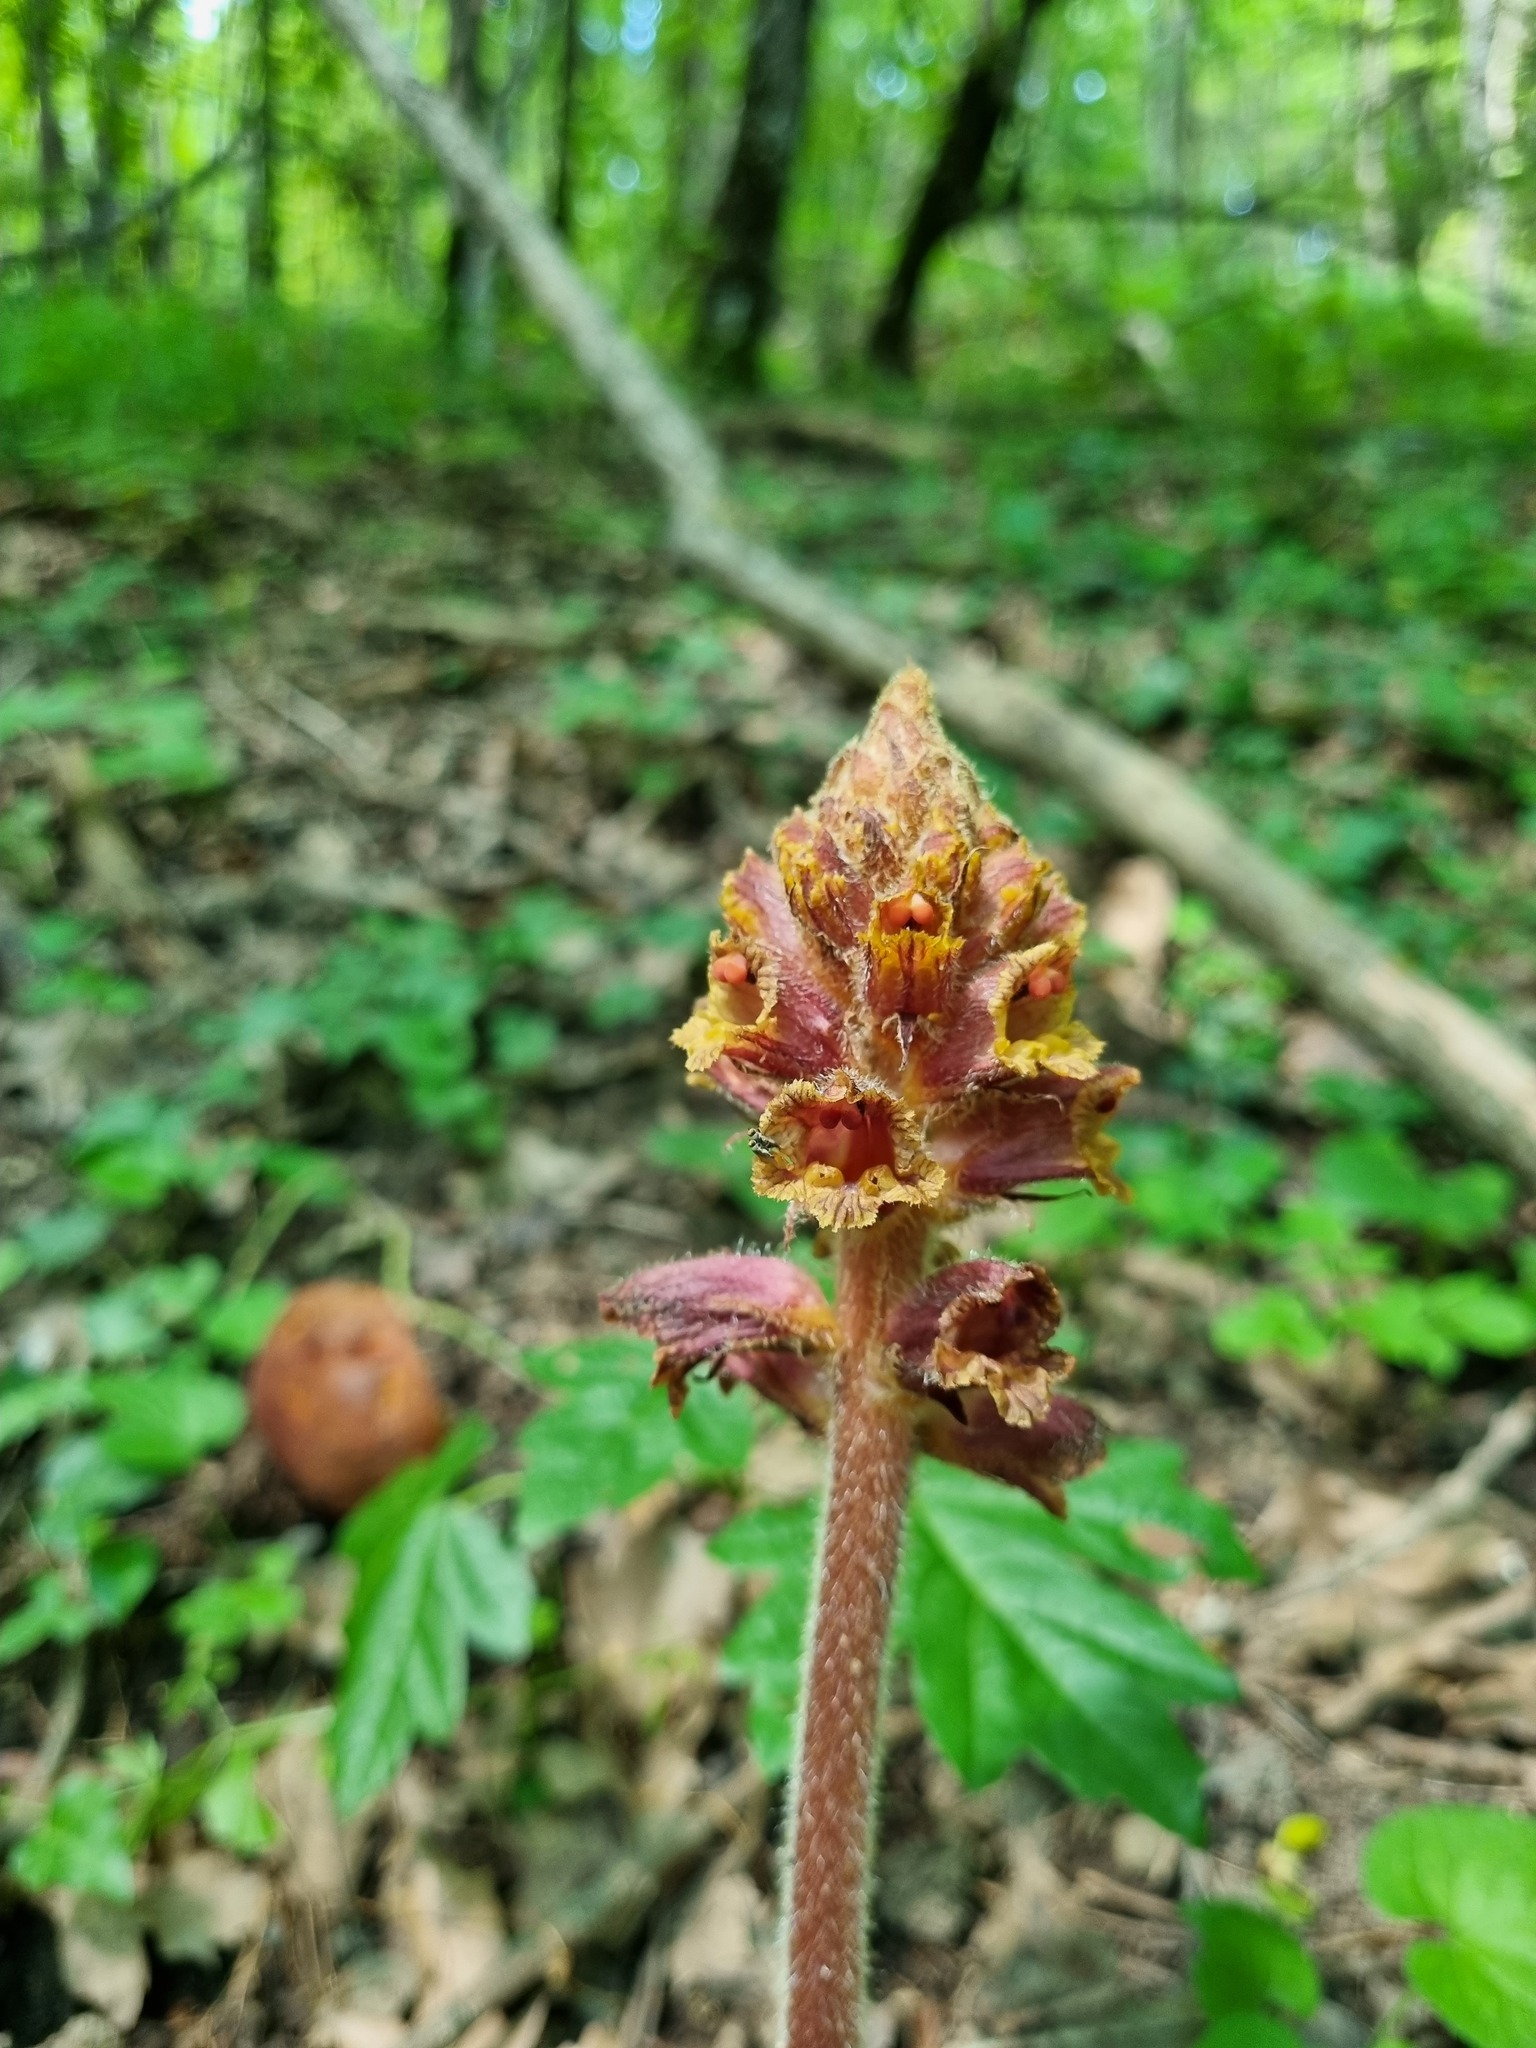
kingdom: Plantae
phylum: Tracheophyta
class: Magnoliopsida
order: Lamiales
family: Orobanchaceae
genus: Orobanche
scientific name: Orobanche laxissima
